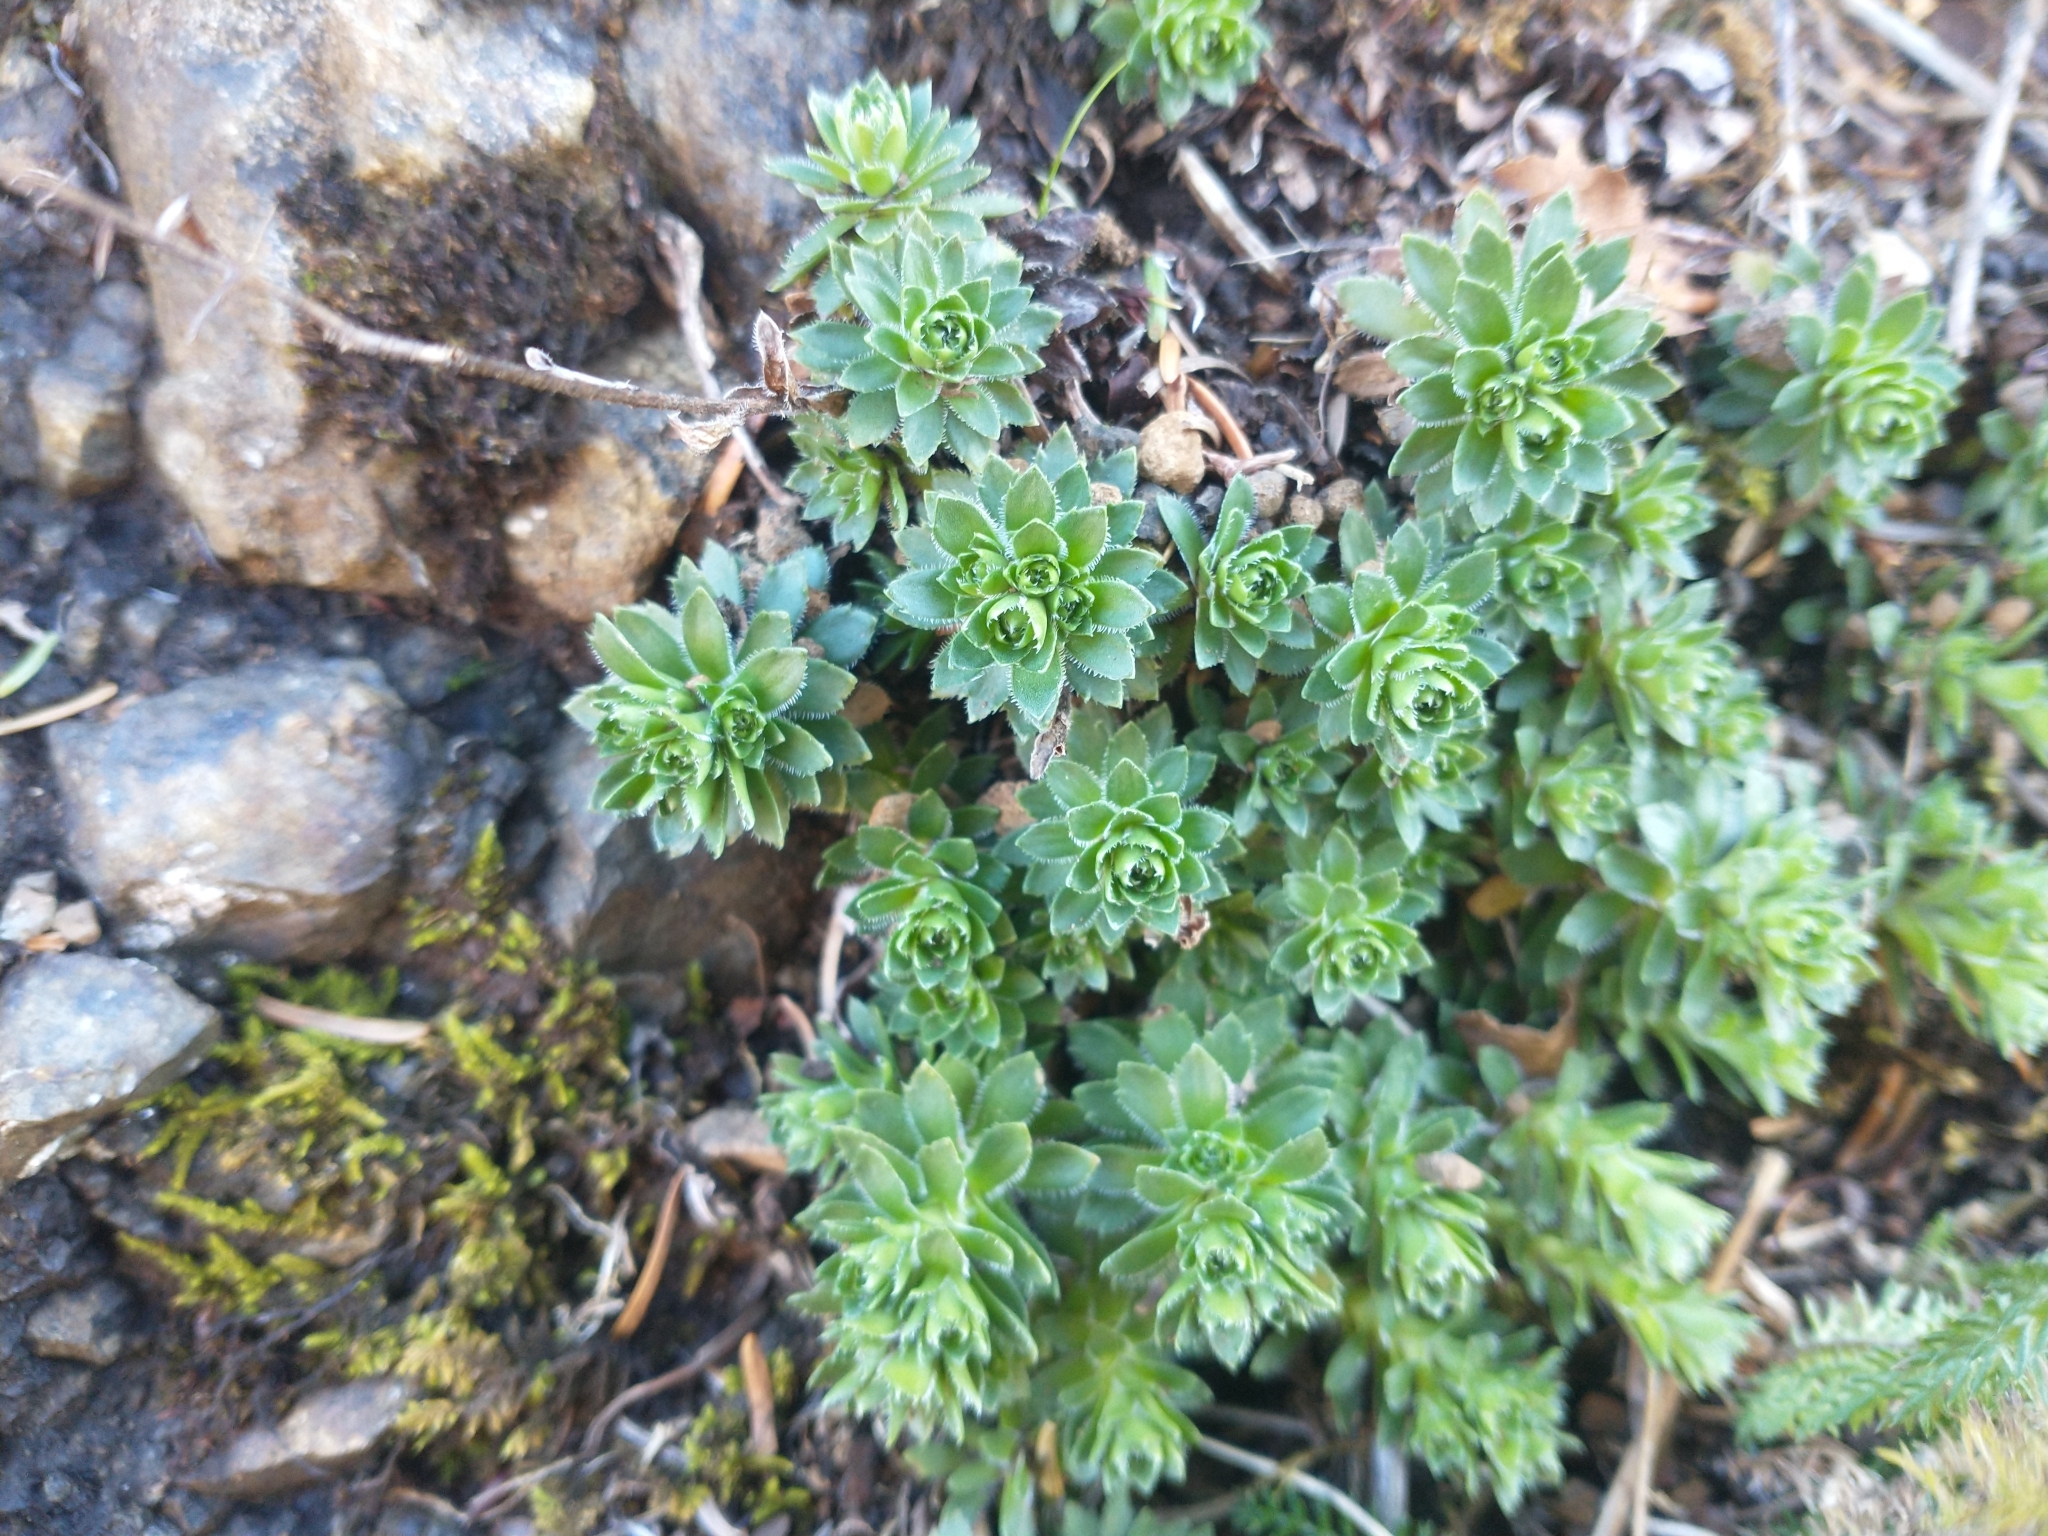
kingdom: Plantae
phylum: Tracheophyta
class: Magnoliopsida
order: Saxifragales
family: Saxifragaceae
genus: Saxifraga
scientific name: Saxifraga bronchialis
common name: Matted saxifrage
